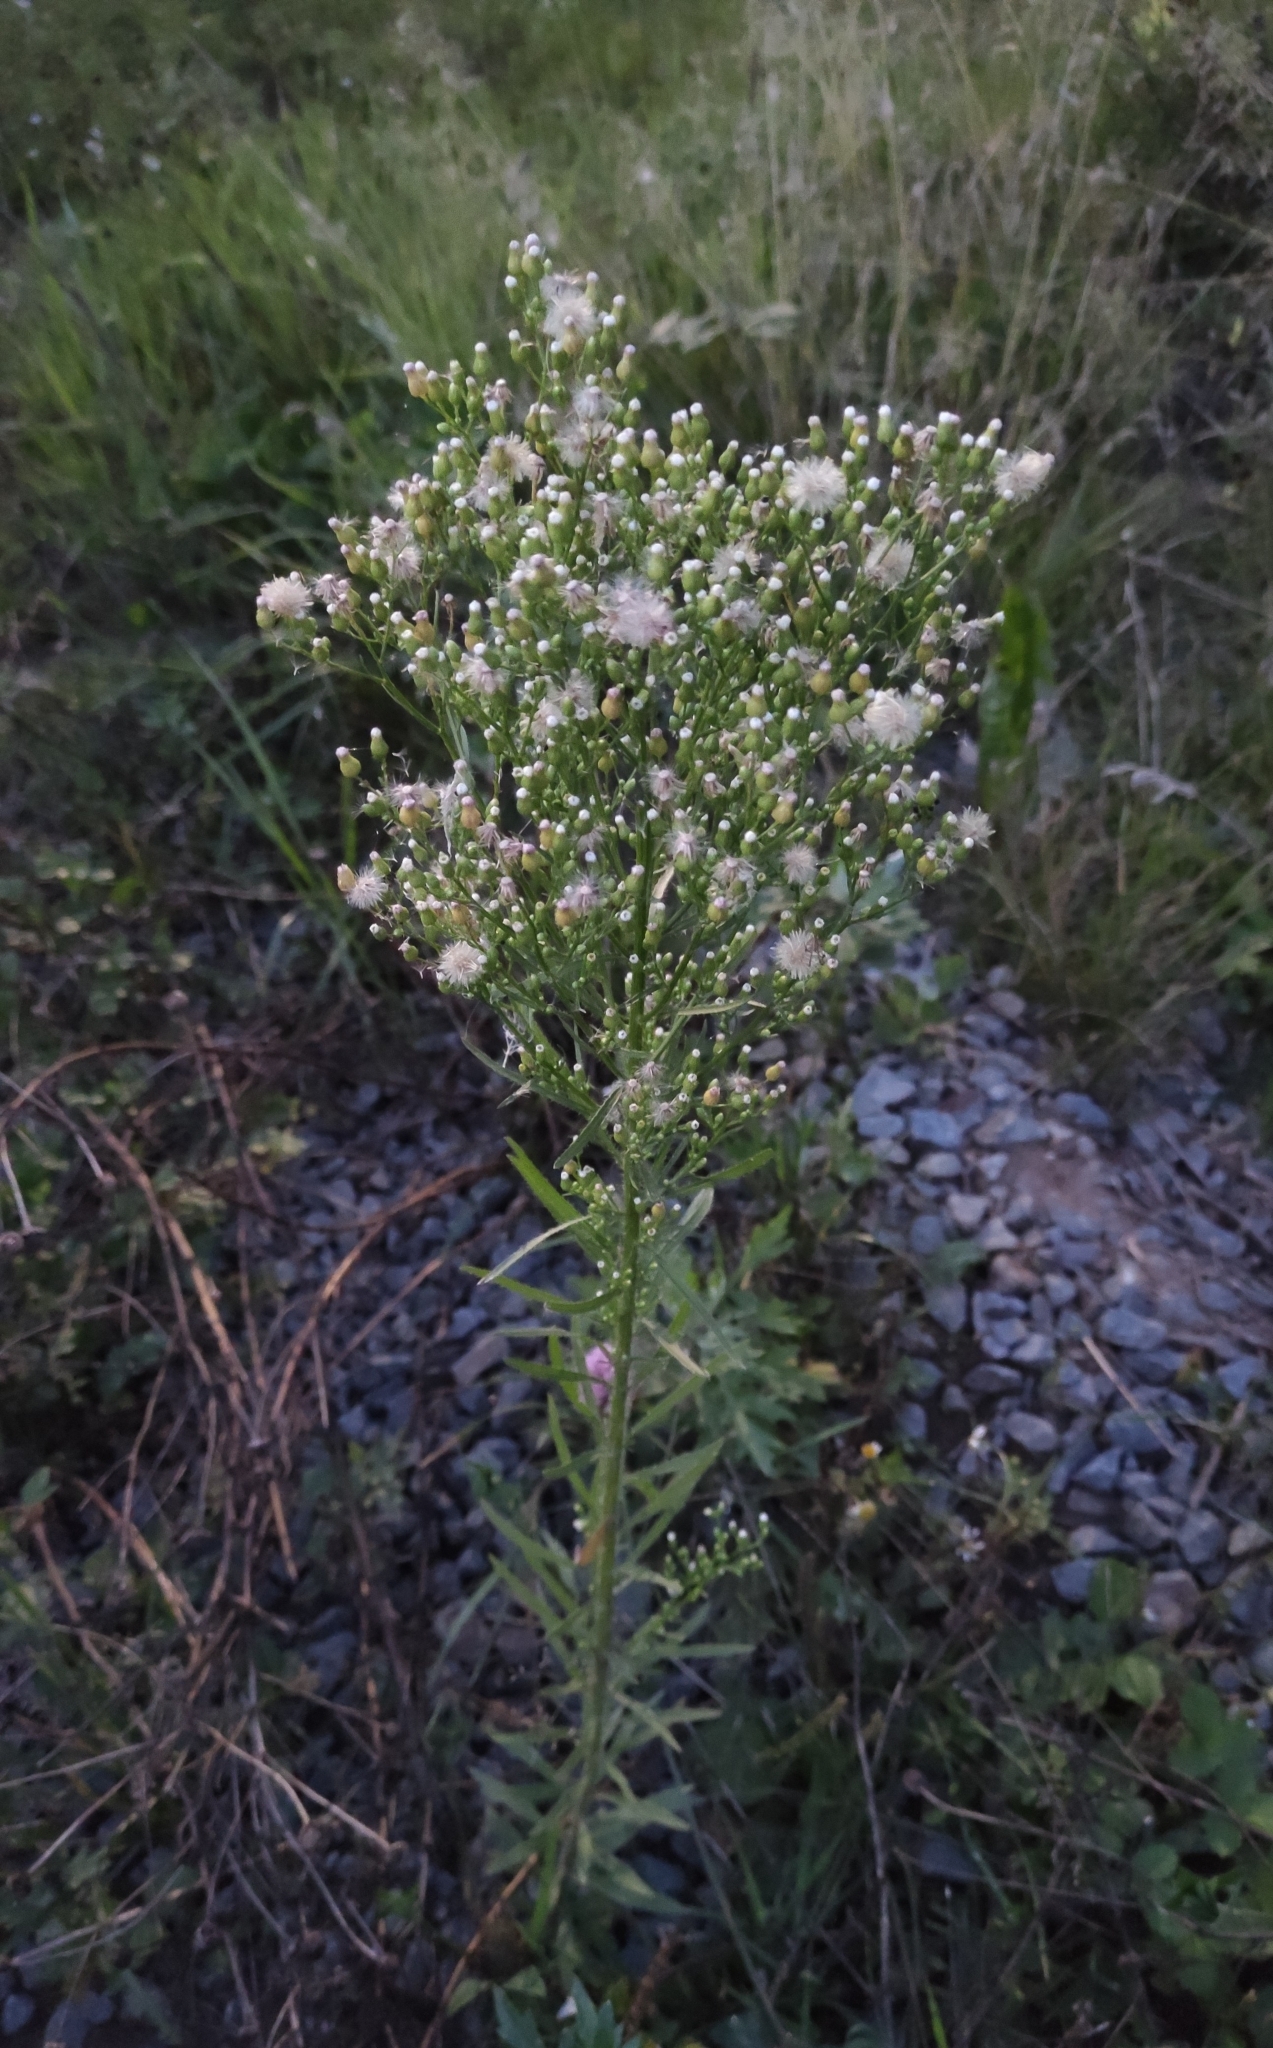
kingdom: Plantae
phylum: Tracheophyta
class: Magnoliopsida
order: Asterales
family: Asteraceae
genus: Erigeron
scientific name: Erigeron canadensis
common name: Canadian fleabane
